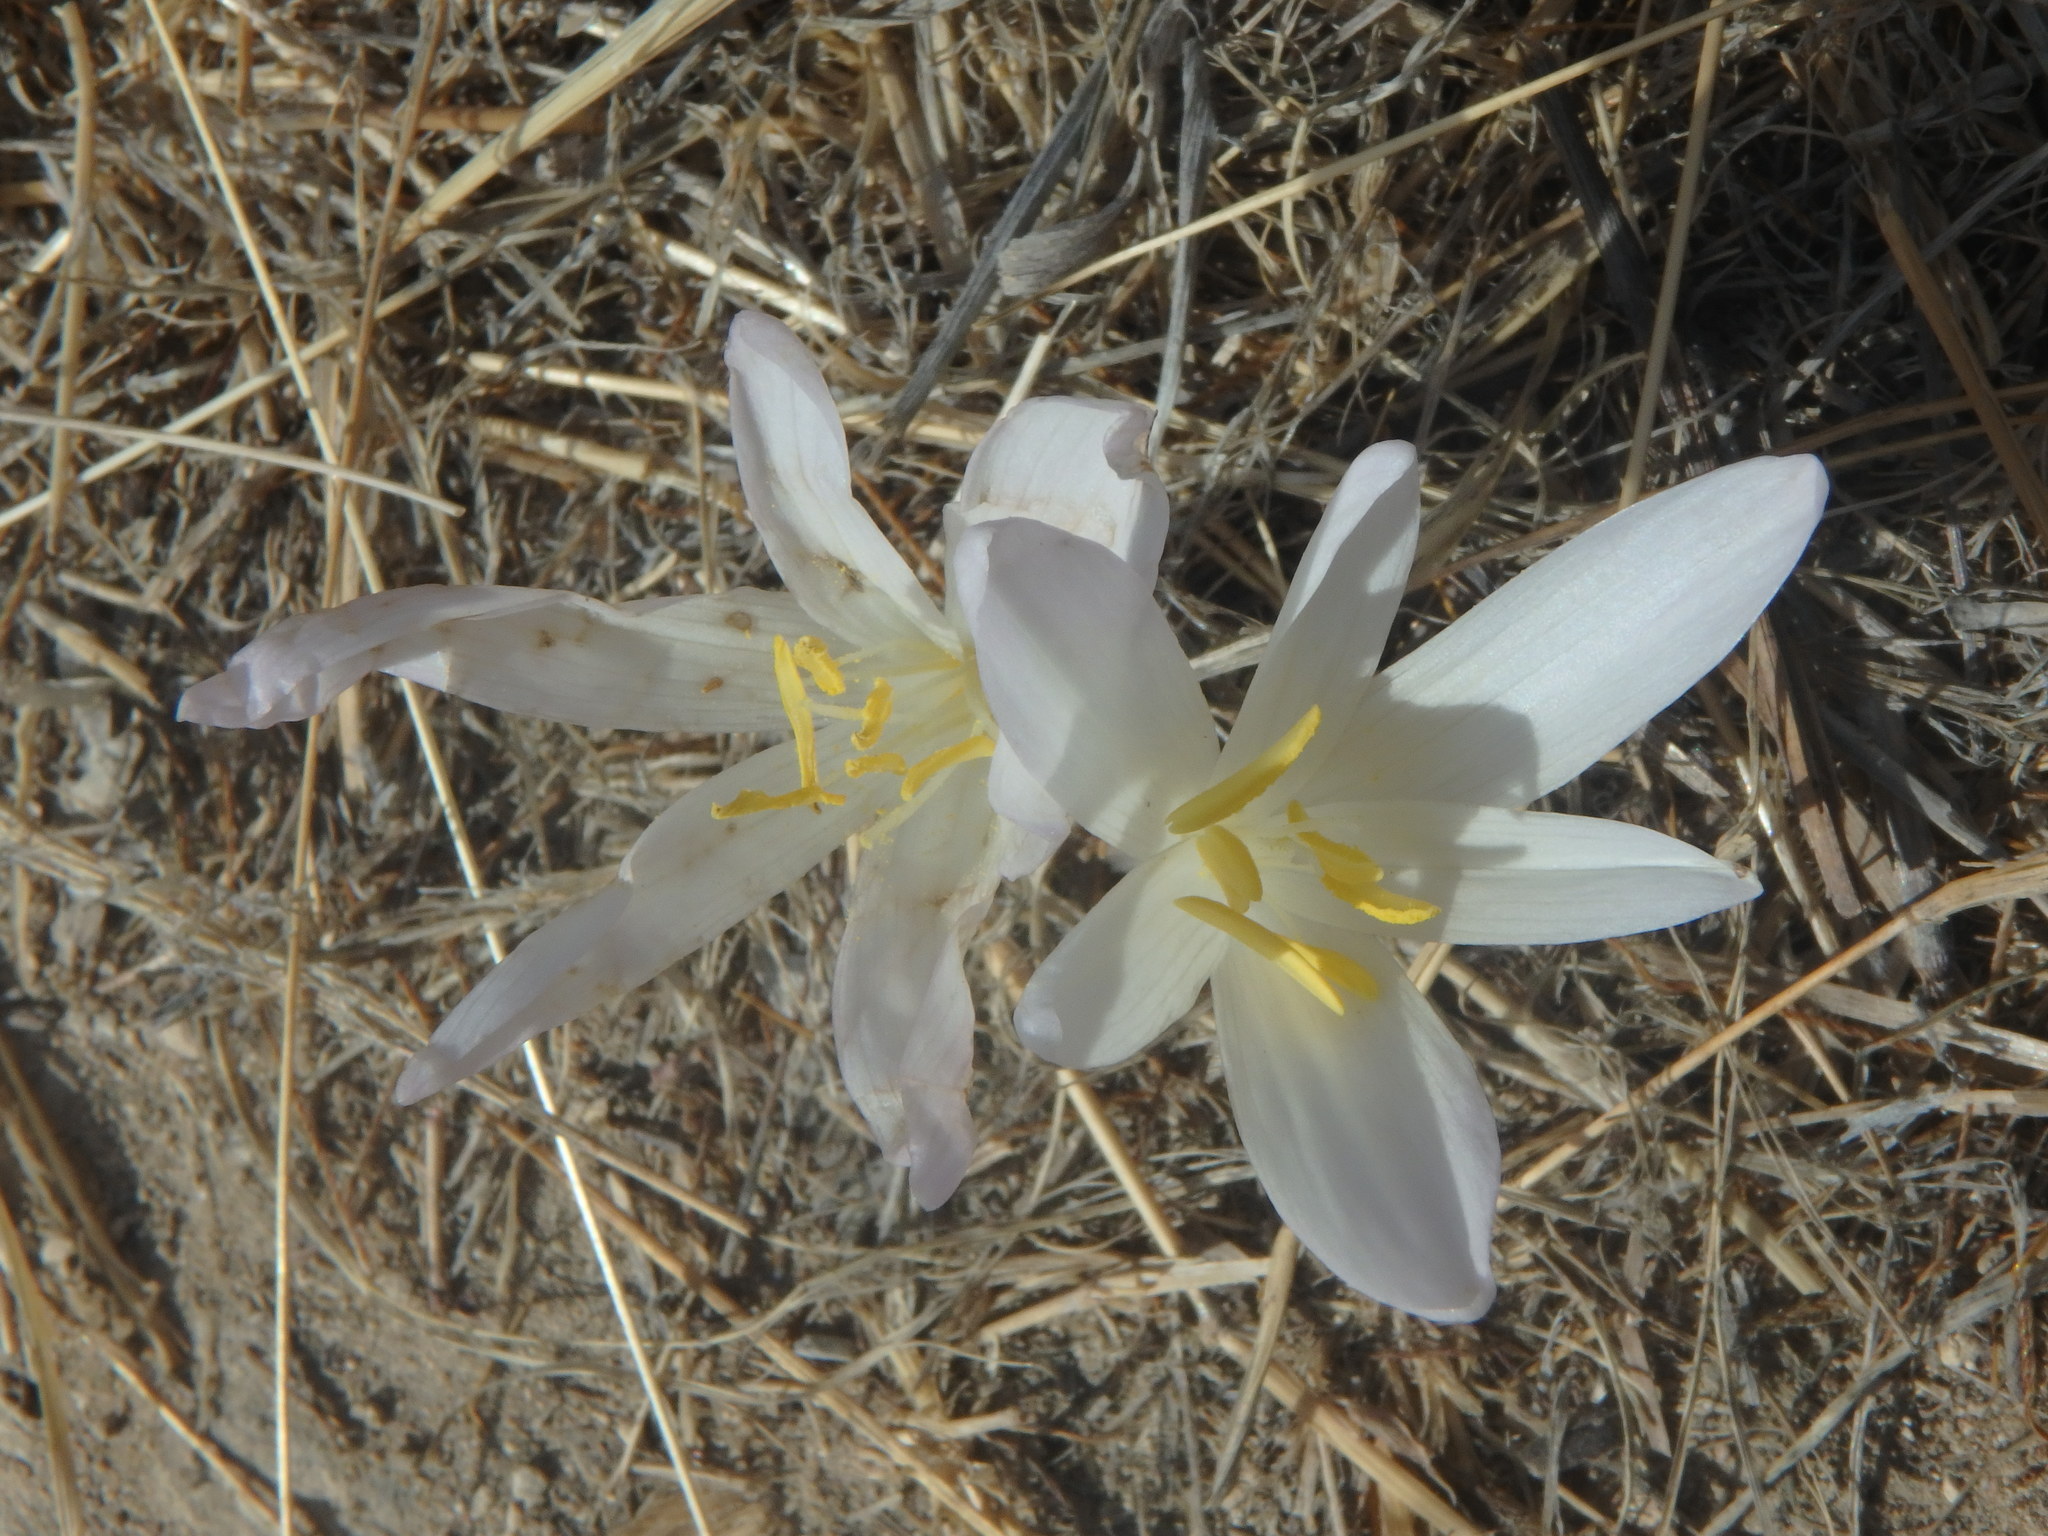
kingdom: Plantae
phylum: Tracheophyta
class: Liliopsida
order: Liliales
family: Colchicaceae
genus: Colchicum
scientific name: Colchicum troodi
